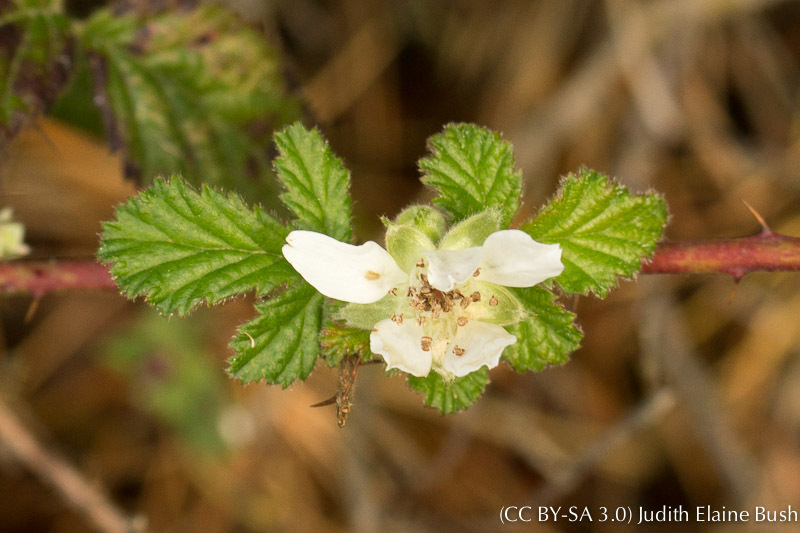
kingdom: Plantae
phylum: Tracheophyta
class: Magnoliopsida
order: Rosales
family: Rosaceae
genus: Rubus
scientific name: Rubus ursinus
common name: Pacific blackberry
